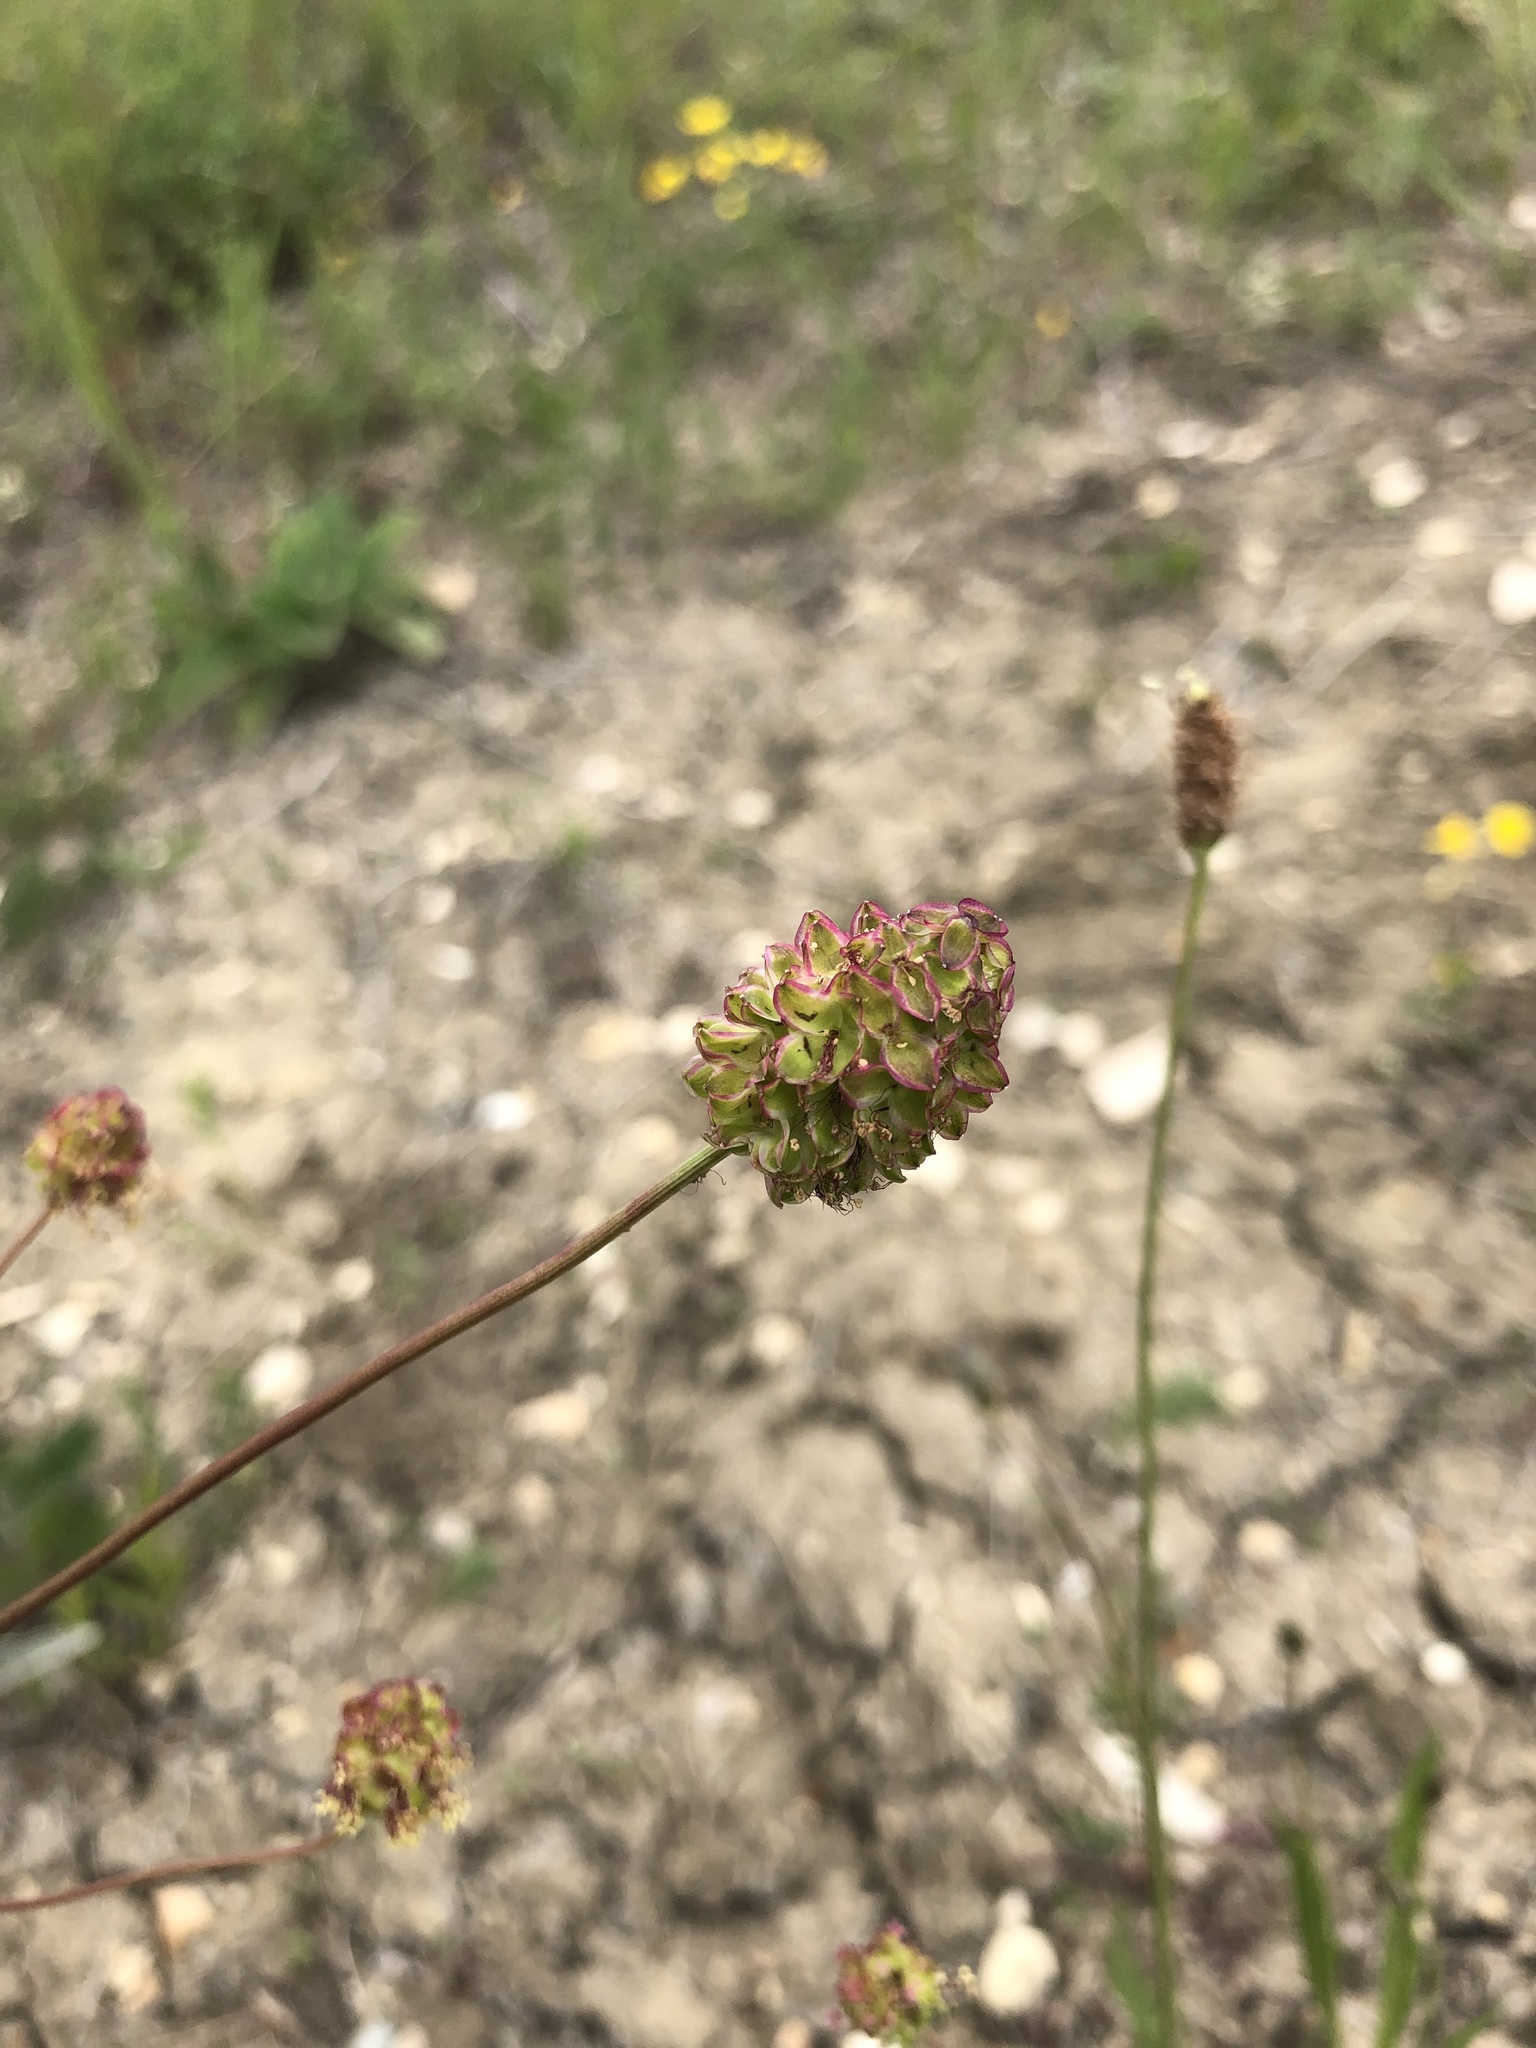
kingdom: Plantae
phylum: Tracheophyta
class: Magnoliopsida
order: Rosales
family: Rosaceae
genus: Poterium
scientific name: Poterium sanguisorba
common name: Salad burnet
